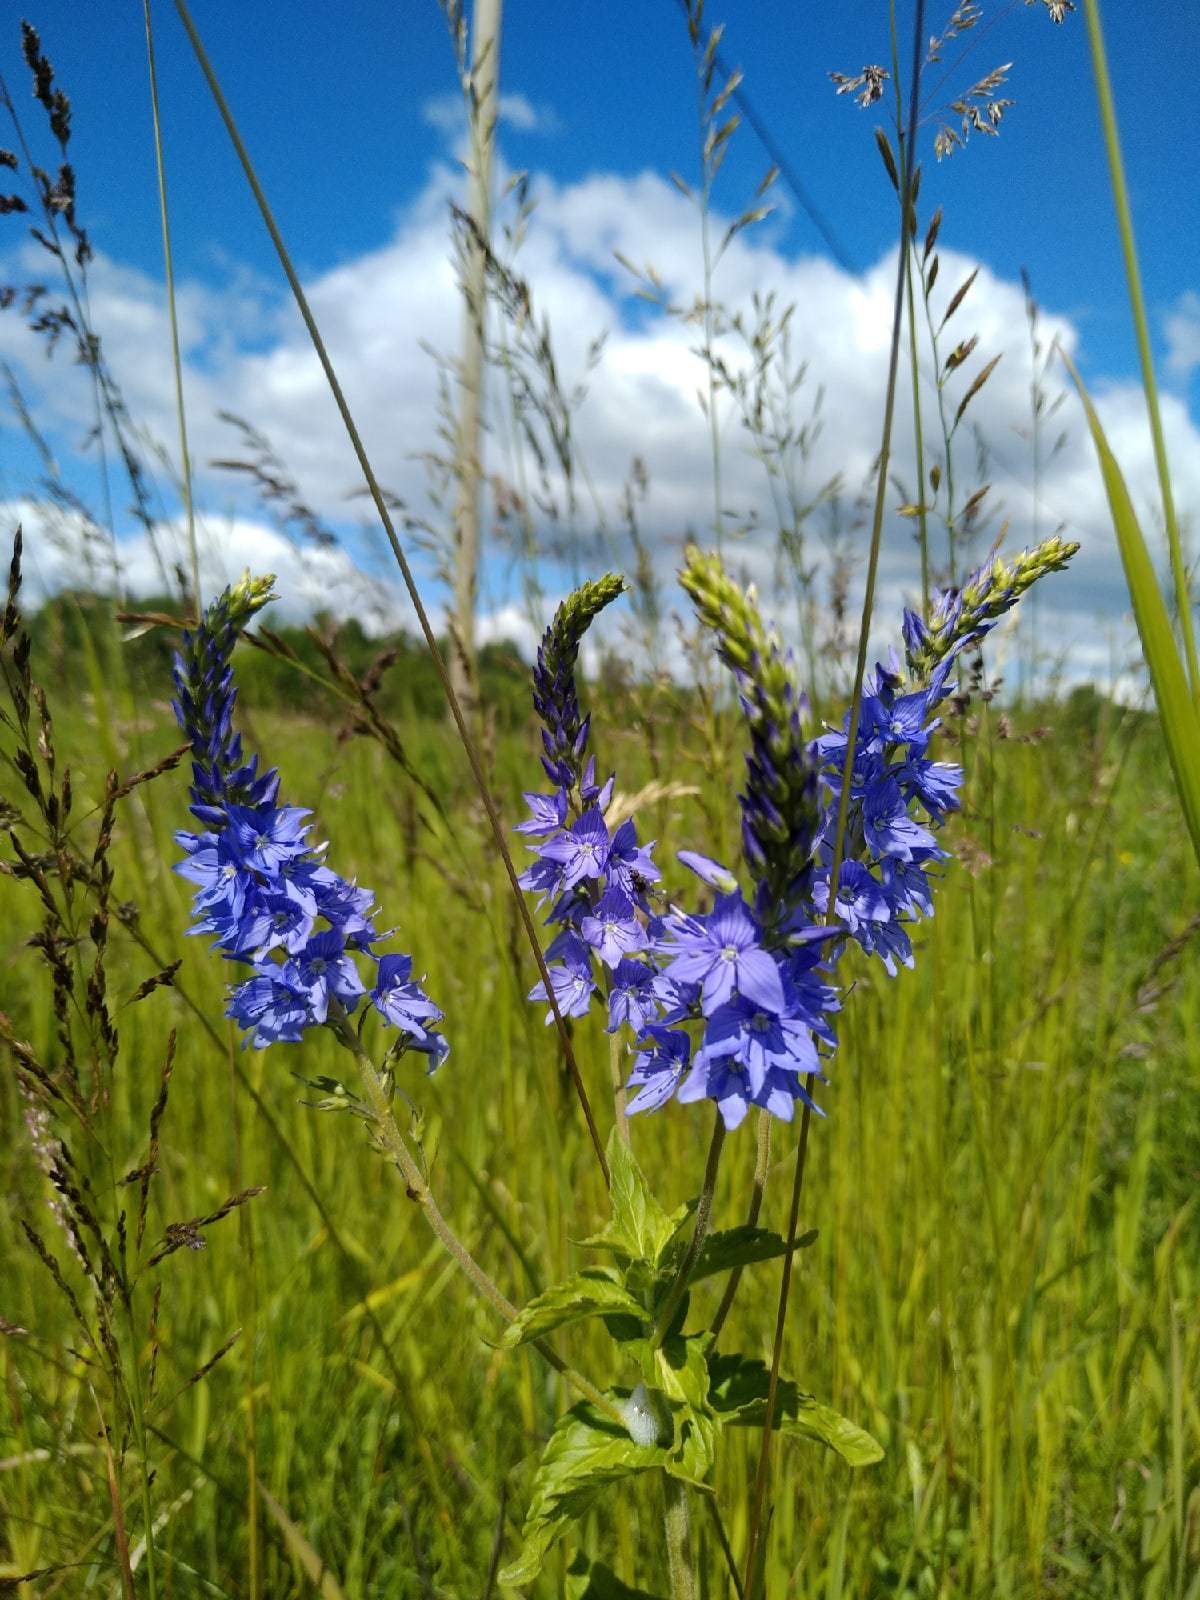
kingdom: Plantae
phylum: Tracheophyta
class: Magnoliopsida
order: Lamiales
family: Plantaginaceae
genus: Veronica
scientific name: Veronica teucrium
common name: Large speedwell
